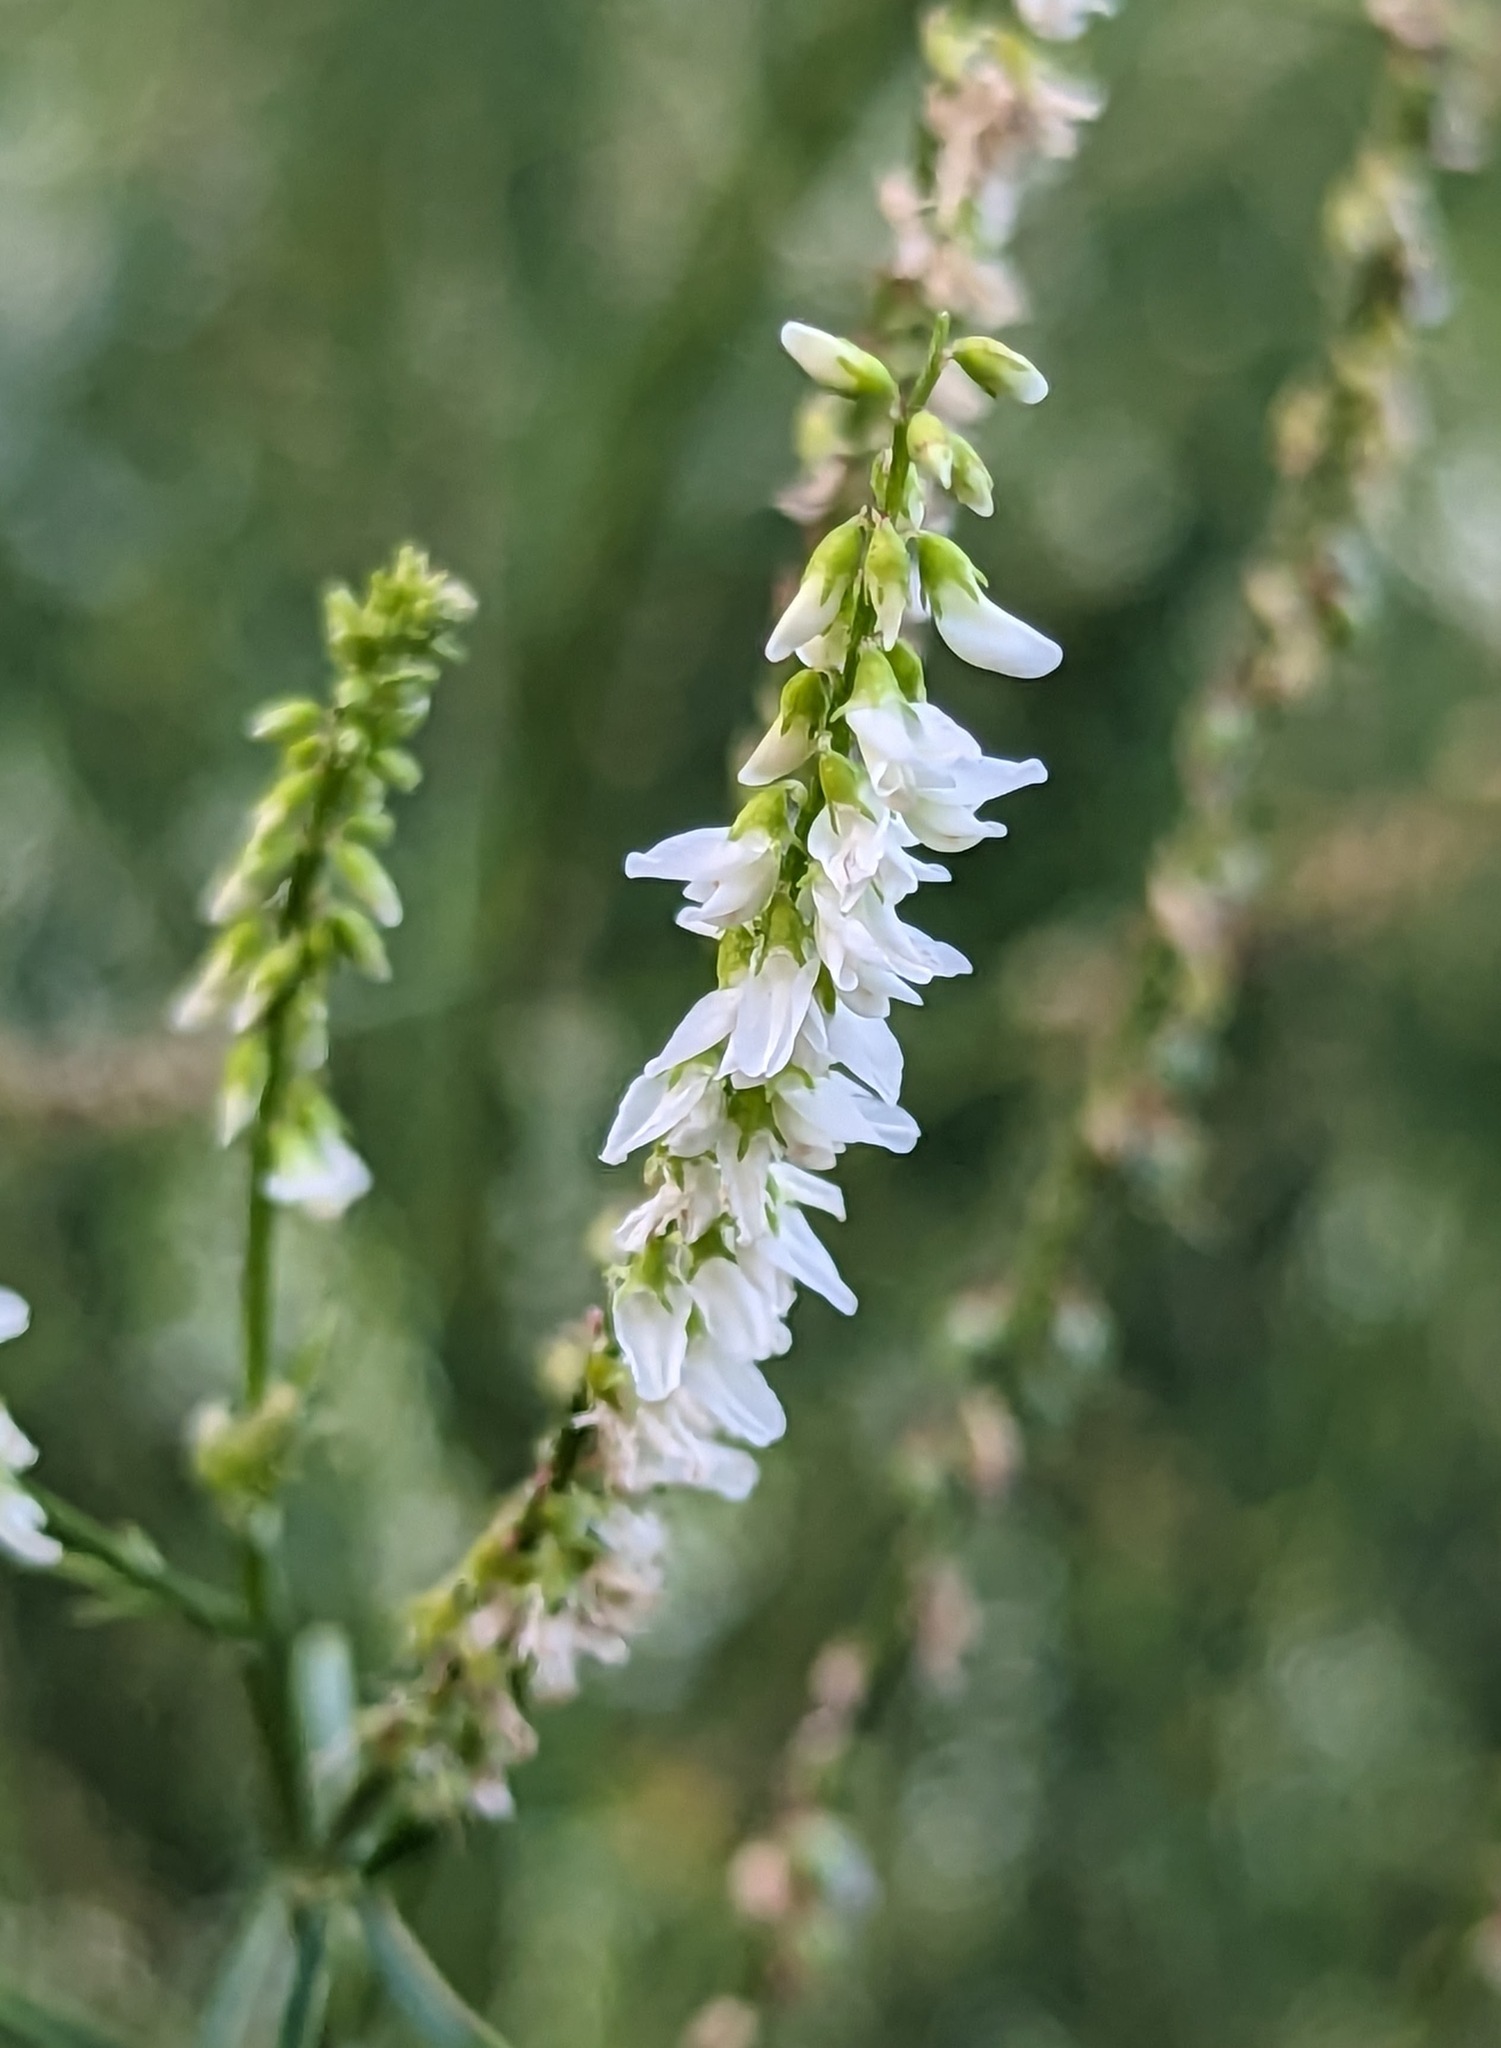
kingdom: Plantae
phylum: Tracheophyta
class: Magnoliopsida
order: Fabales
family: Fabaceae
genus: Melilotus
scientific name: Melilotus albus
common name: White melilot
